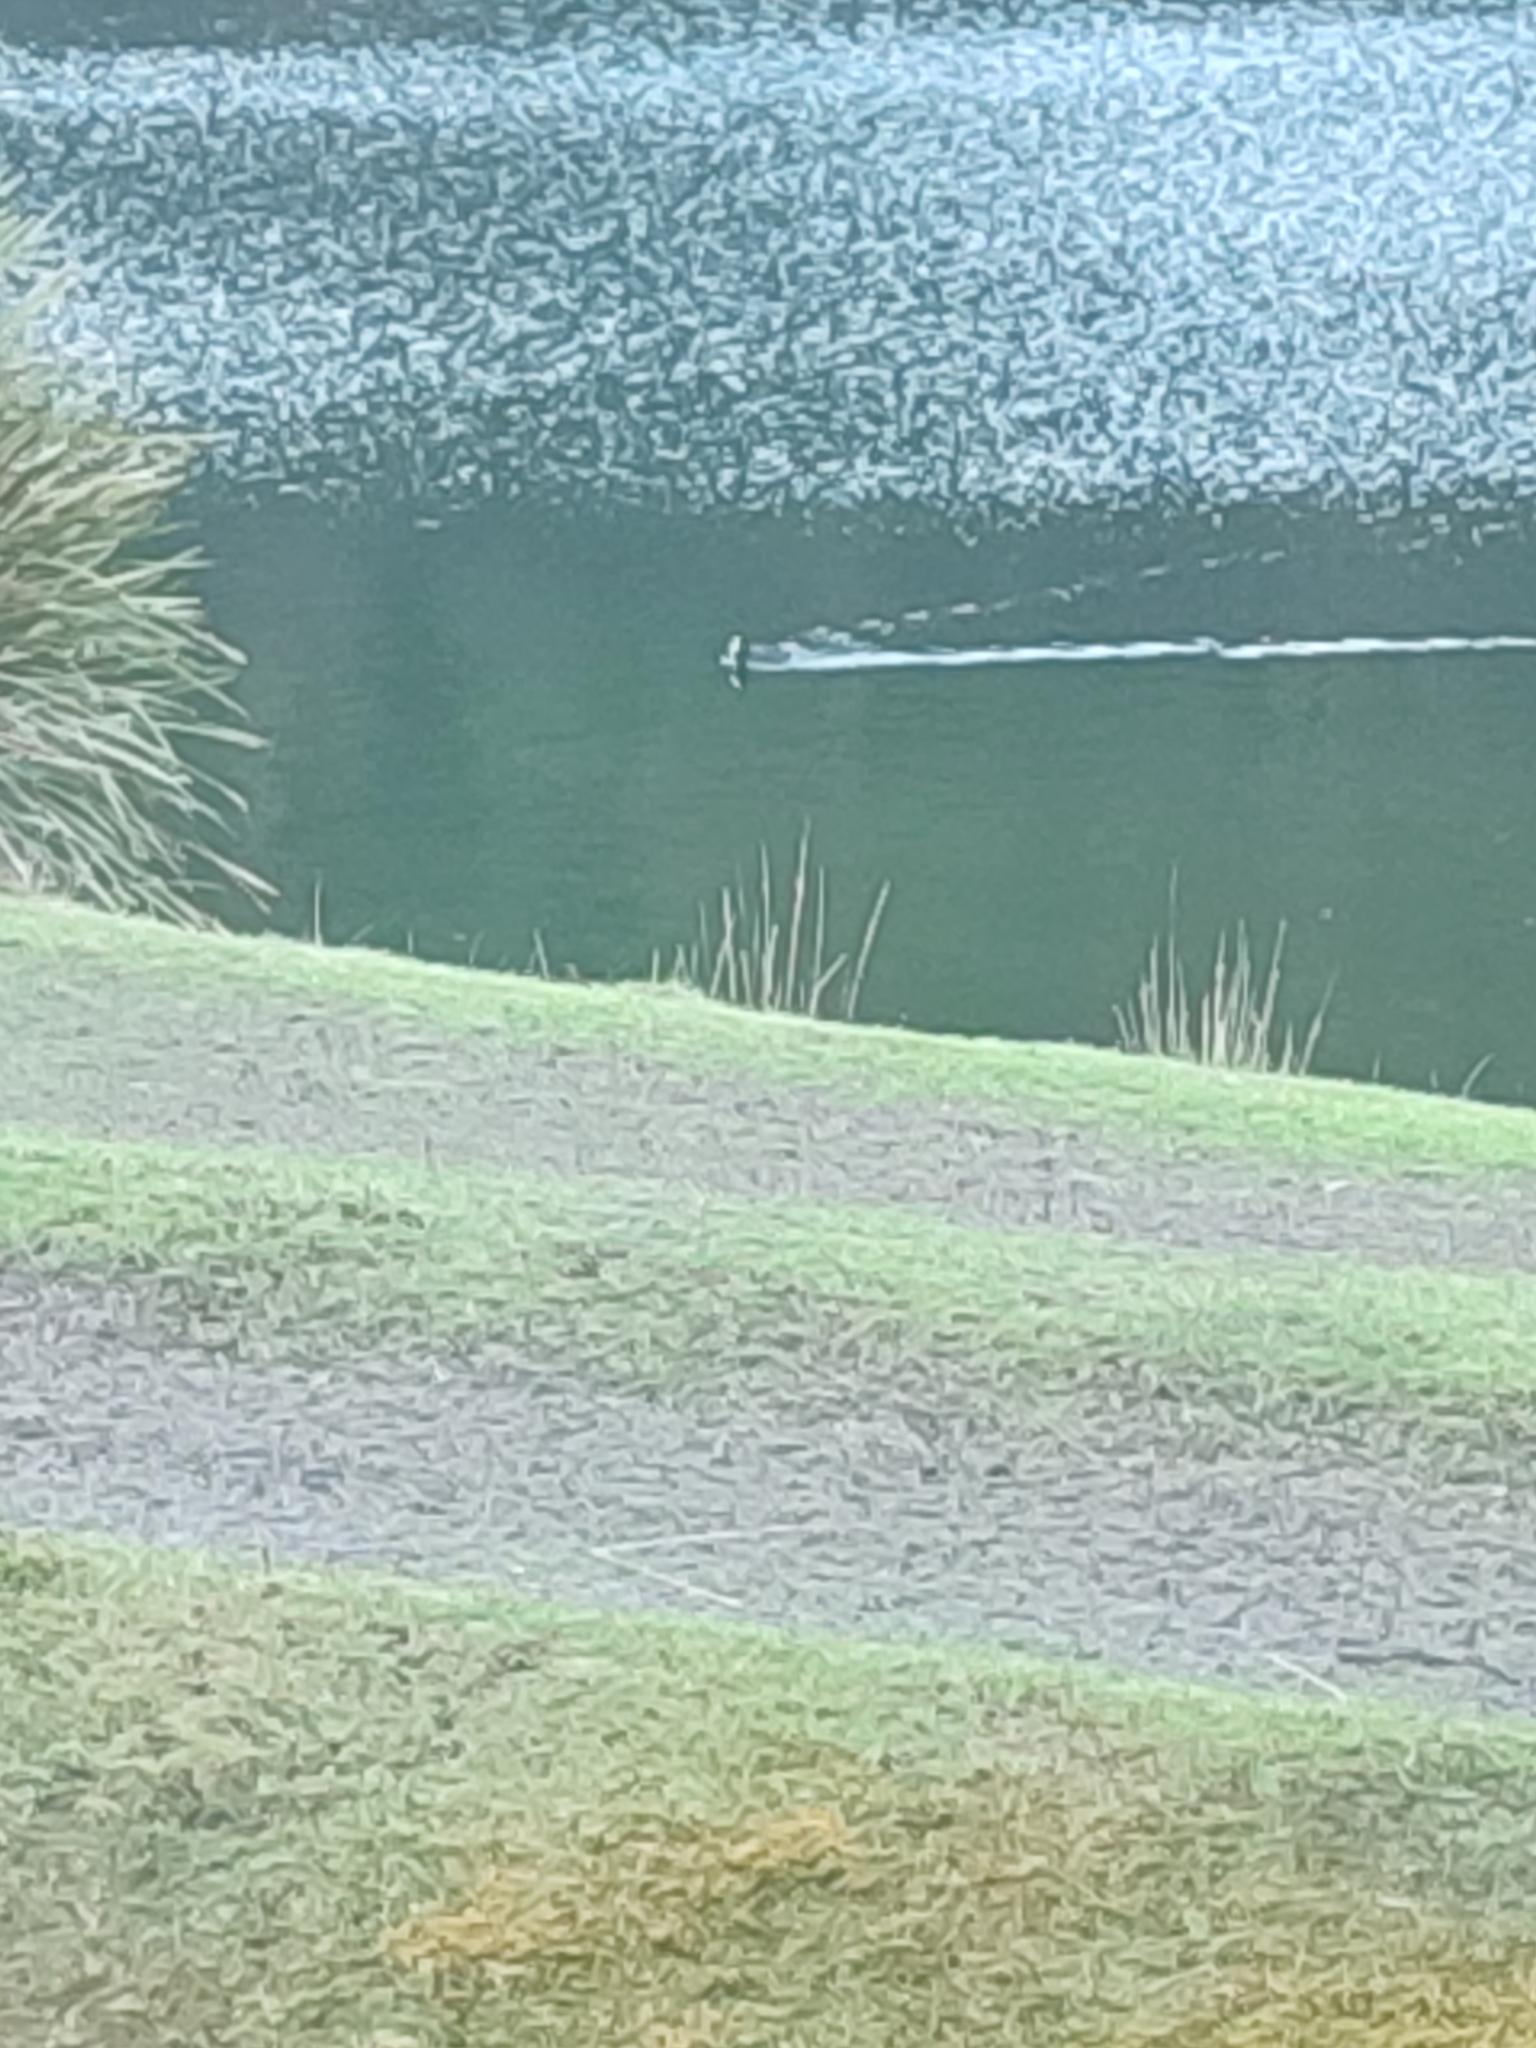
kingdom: Animalia
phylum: Chordata
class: Aves
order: Gruiformes
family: Rallidae
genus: Fulica
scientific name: Fulica atra
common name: Eurasian coot
